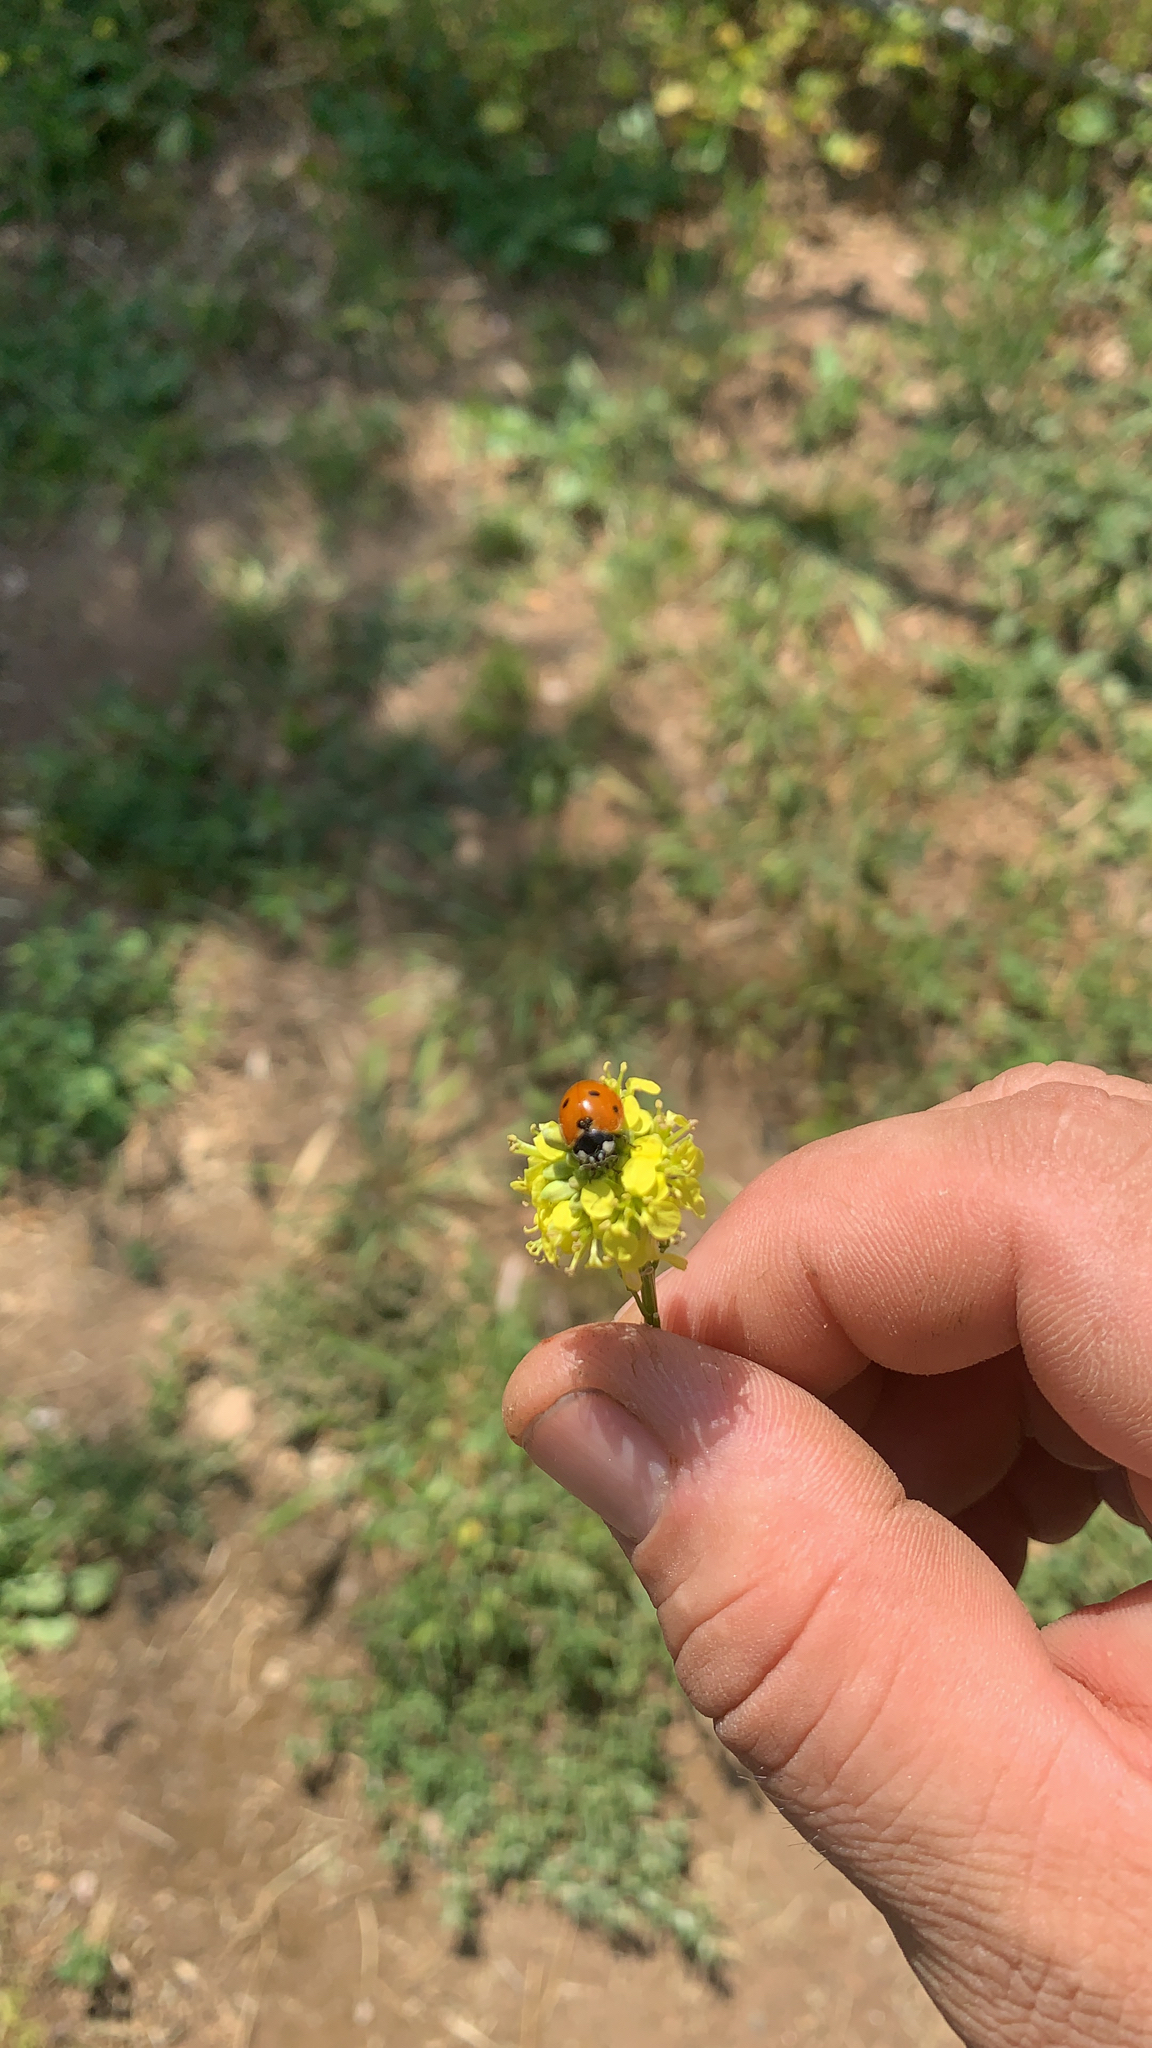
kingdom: Animalia
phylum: Arthropoda
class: Insecta
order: Coleoptera
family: Coccinellidae
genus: Coccinella
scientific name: Coccinella septempunctata
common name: Sevenspotted lady beetle
